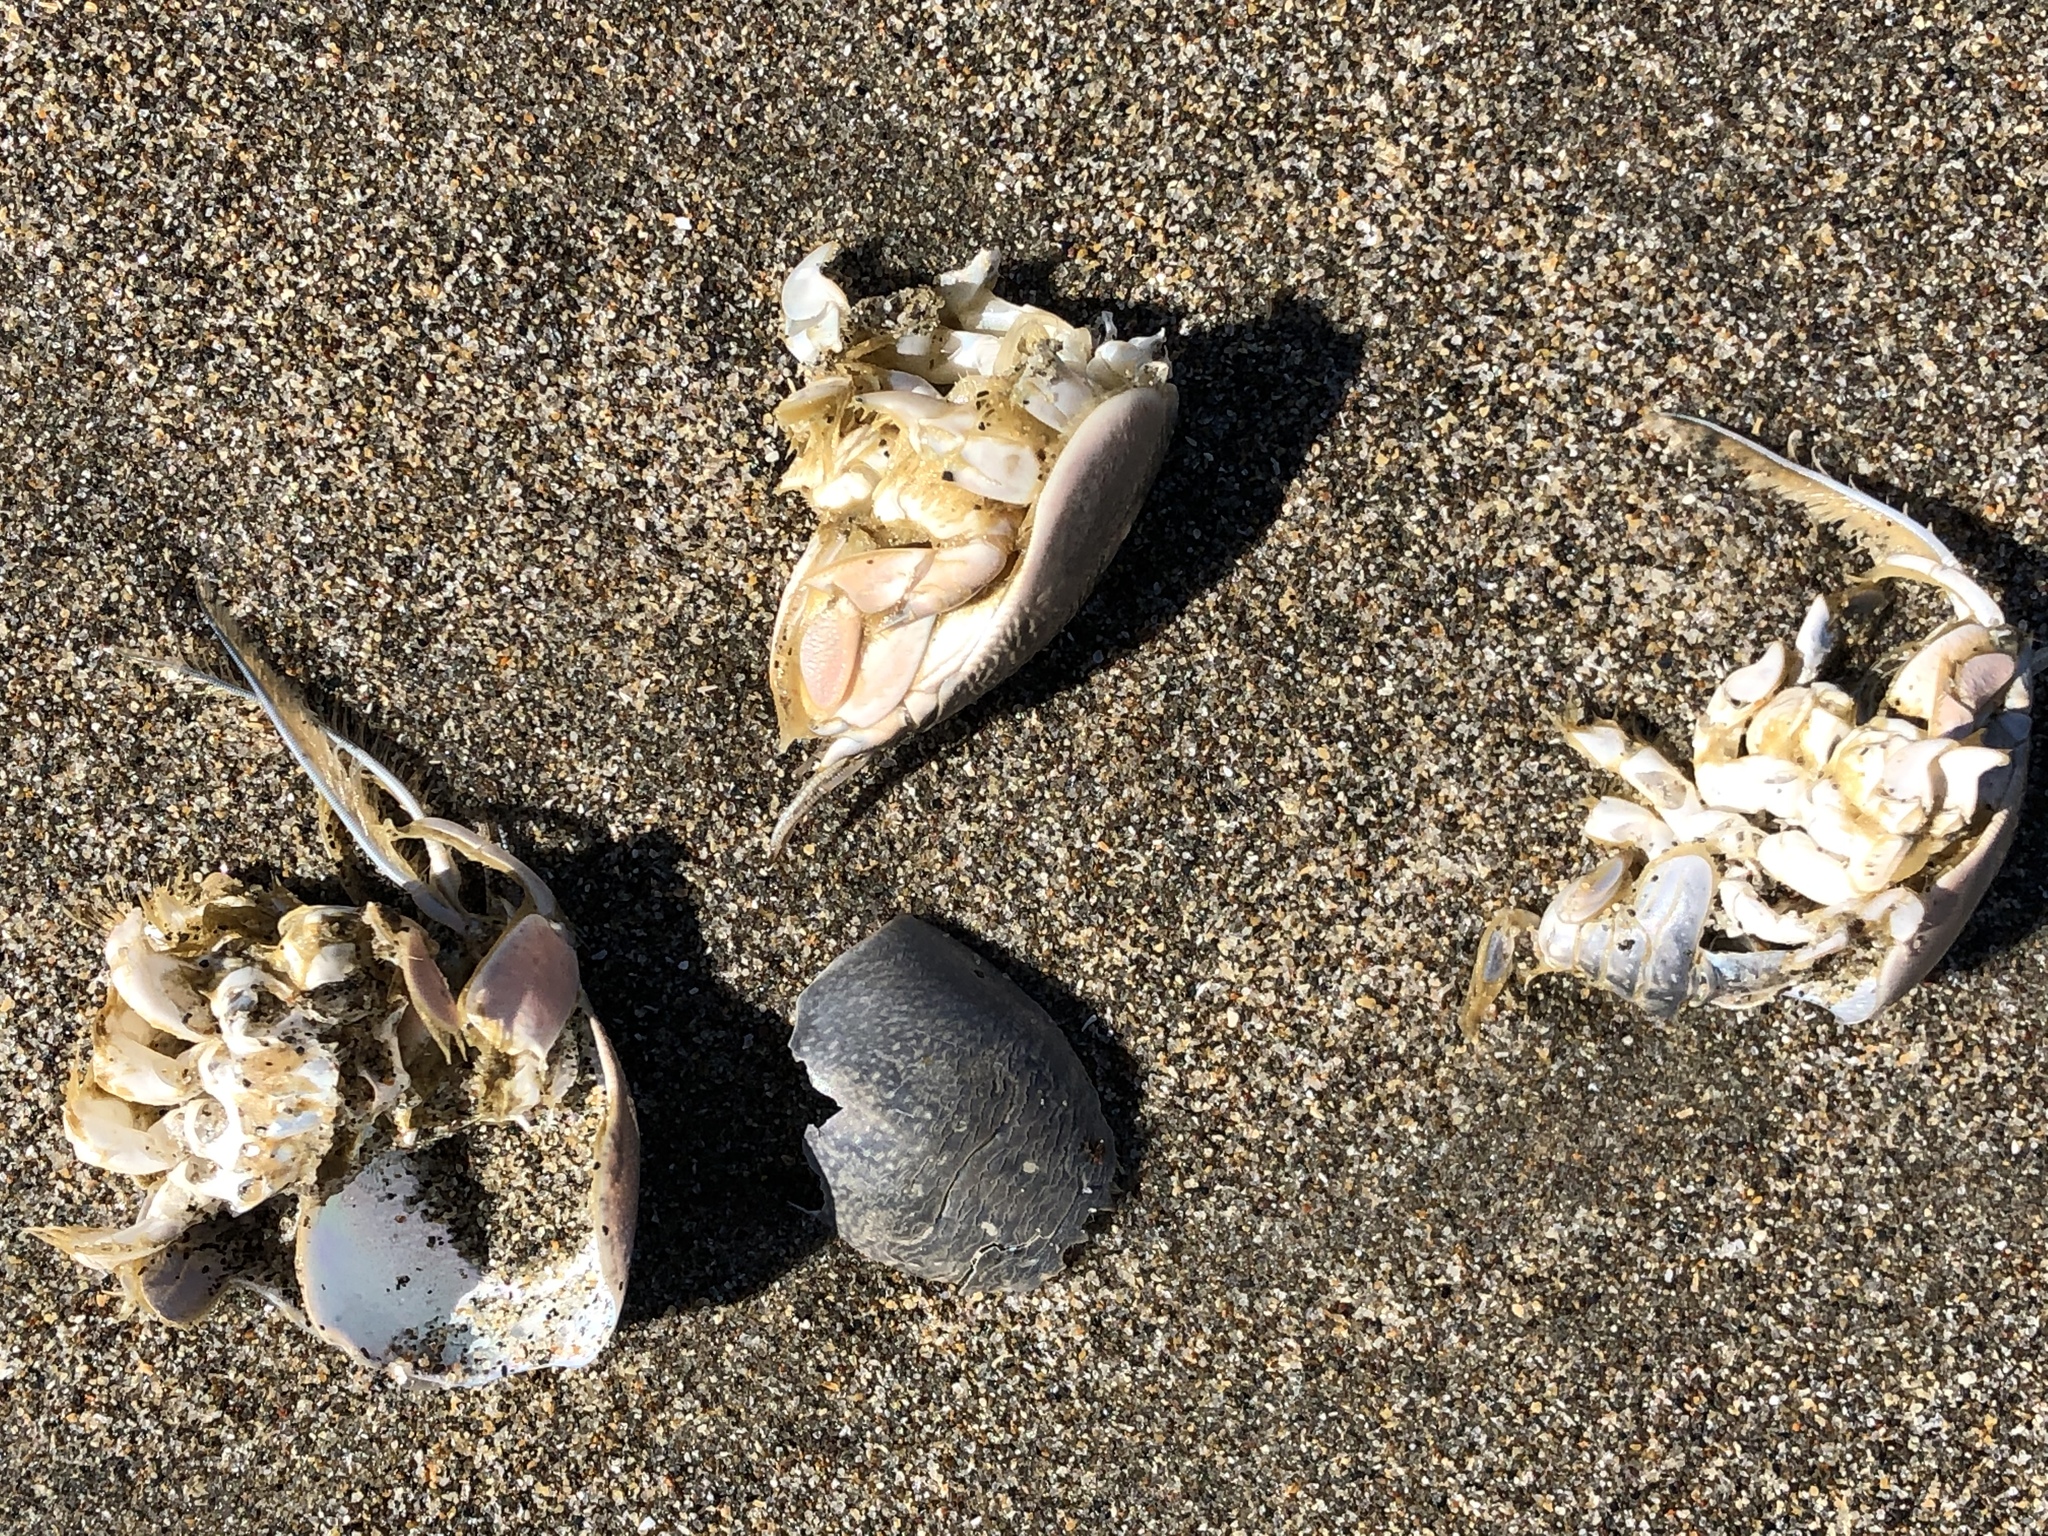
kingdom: Animalia
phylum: Arthropoda
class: Malacostraca
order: Decapoda
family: Hippidae
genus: Emerita
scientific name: Emerita analoga
